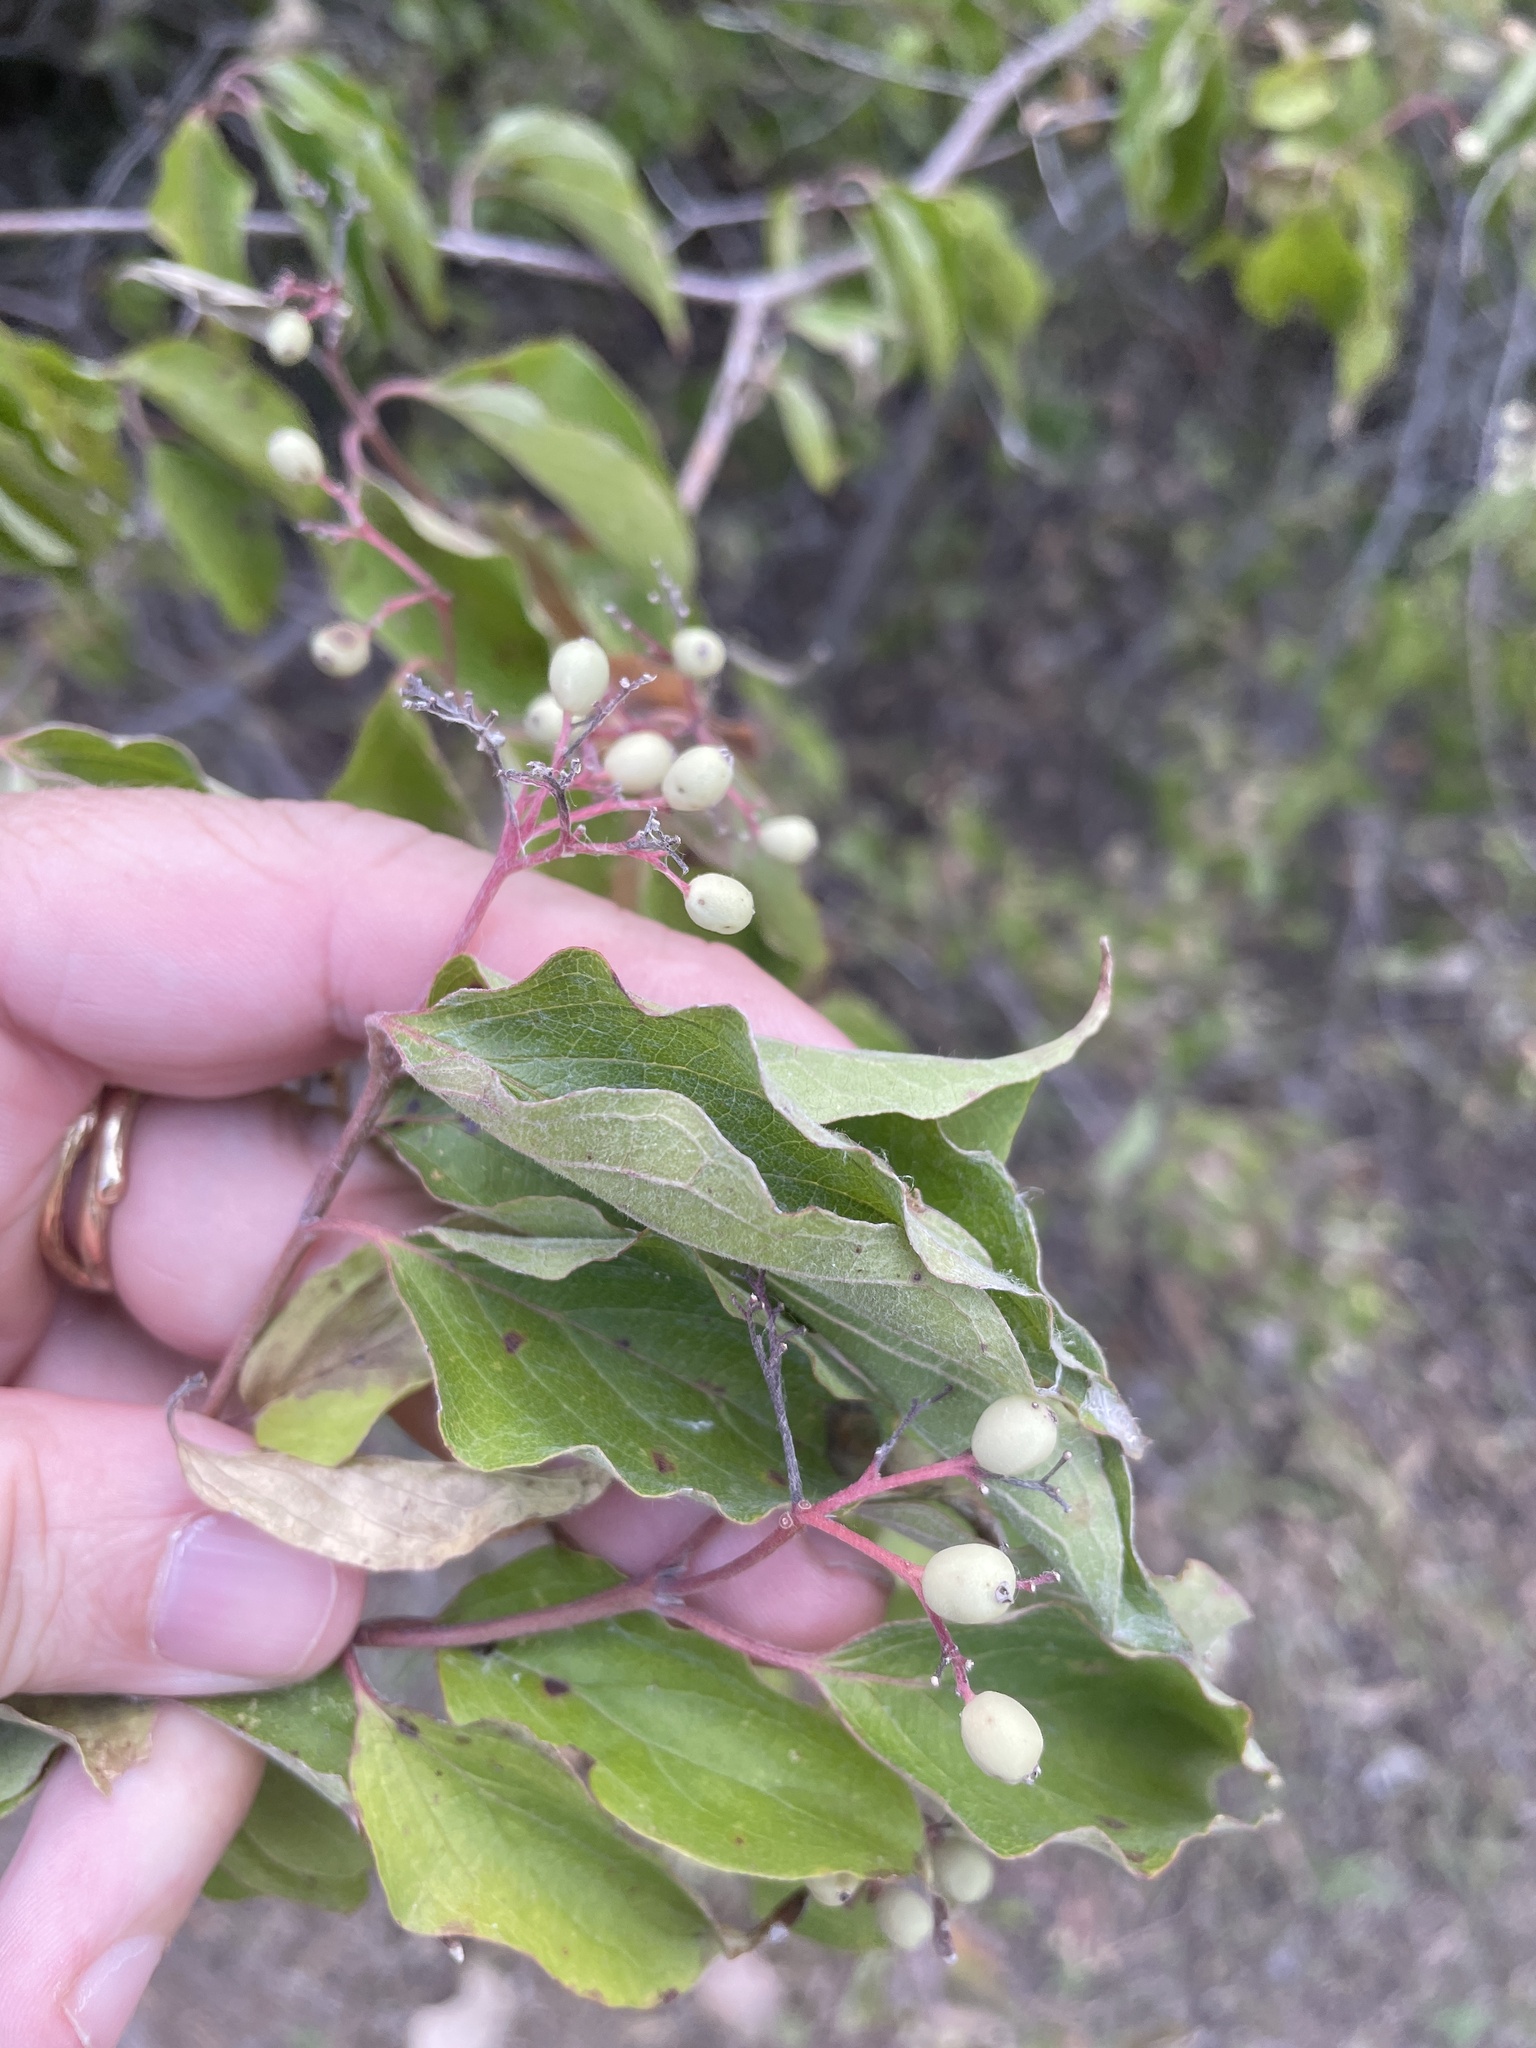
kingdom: Plantae
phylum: Tracheophyta
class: Magnoliopsida
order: Cornales
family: Cornaceae
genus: Cornus
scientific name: Cornus drummondii
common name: Rough-leaf dogwood
